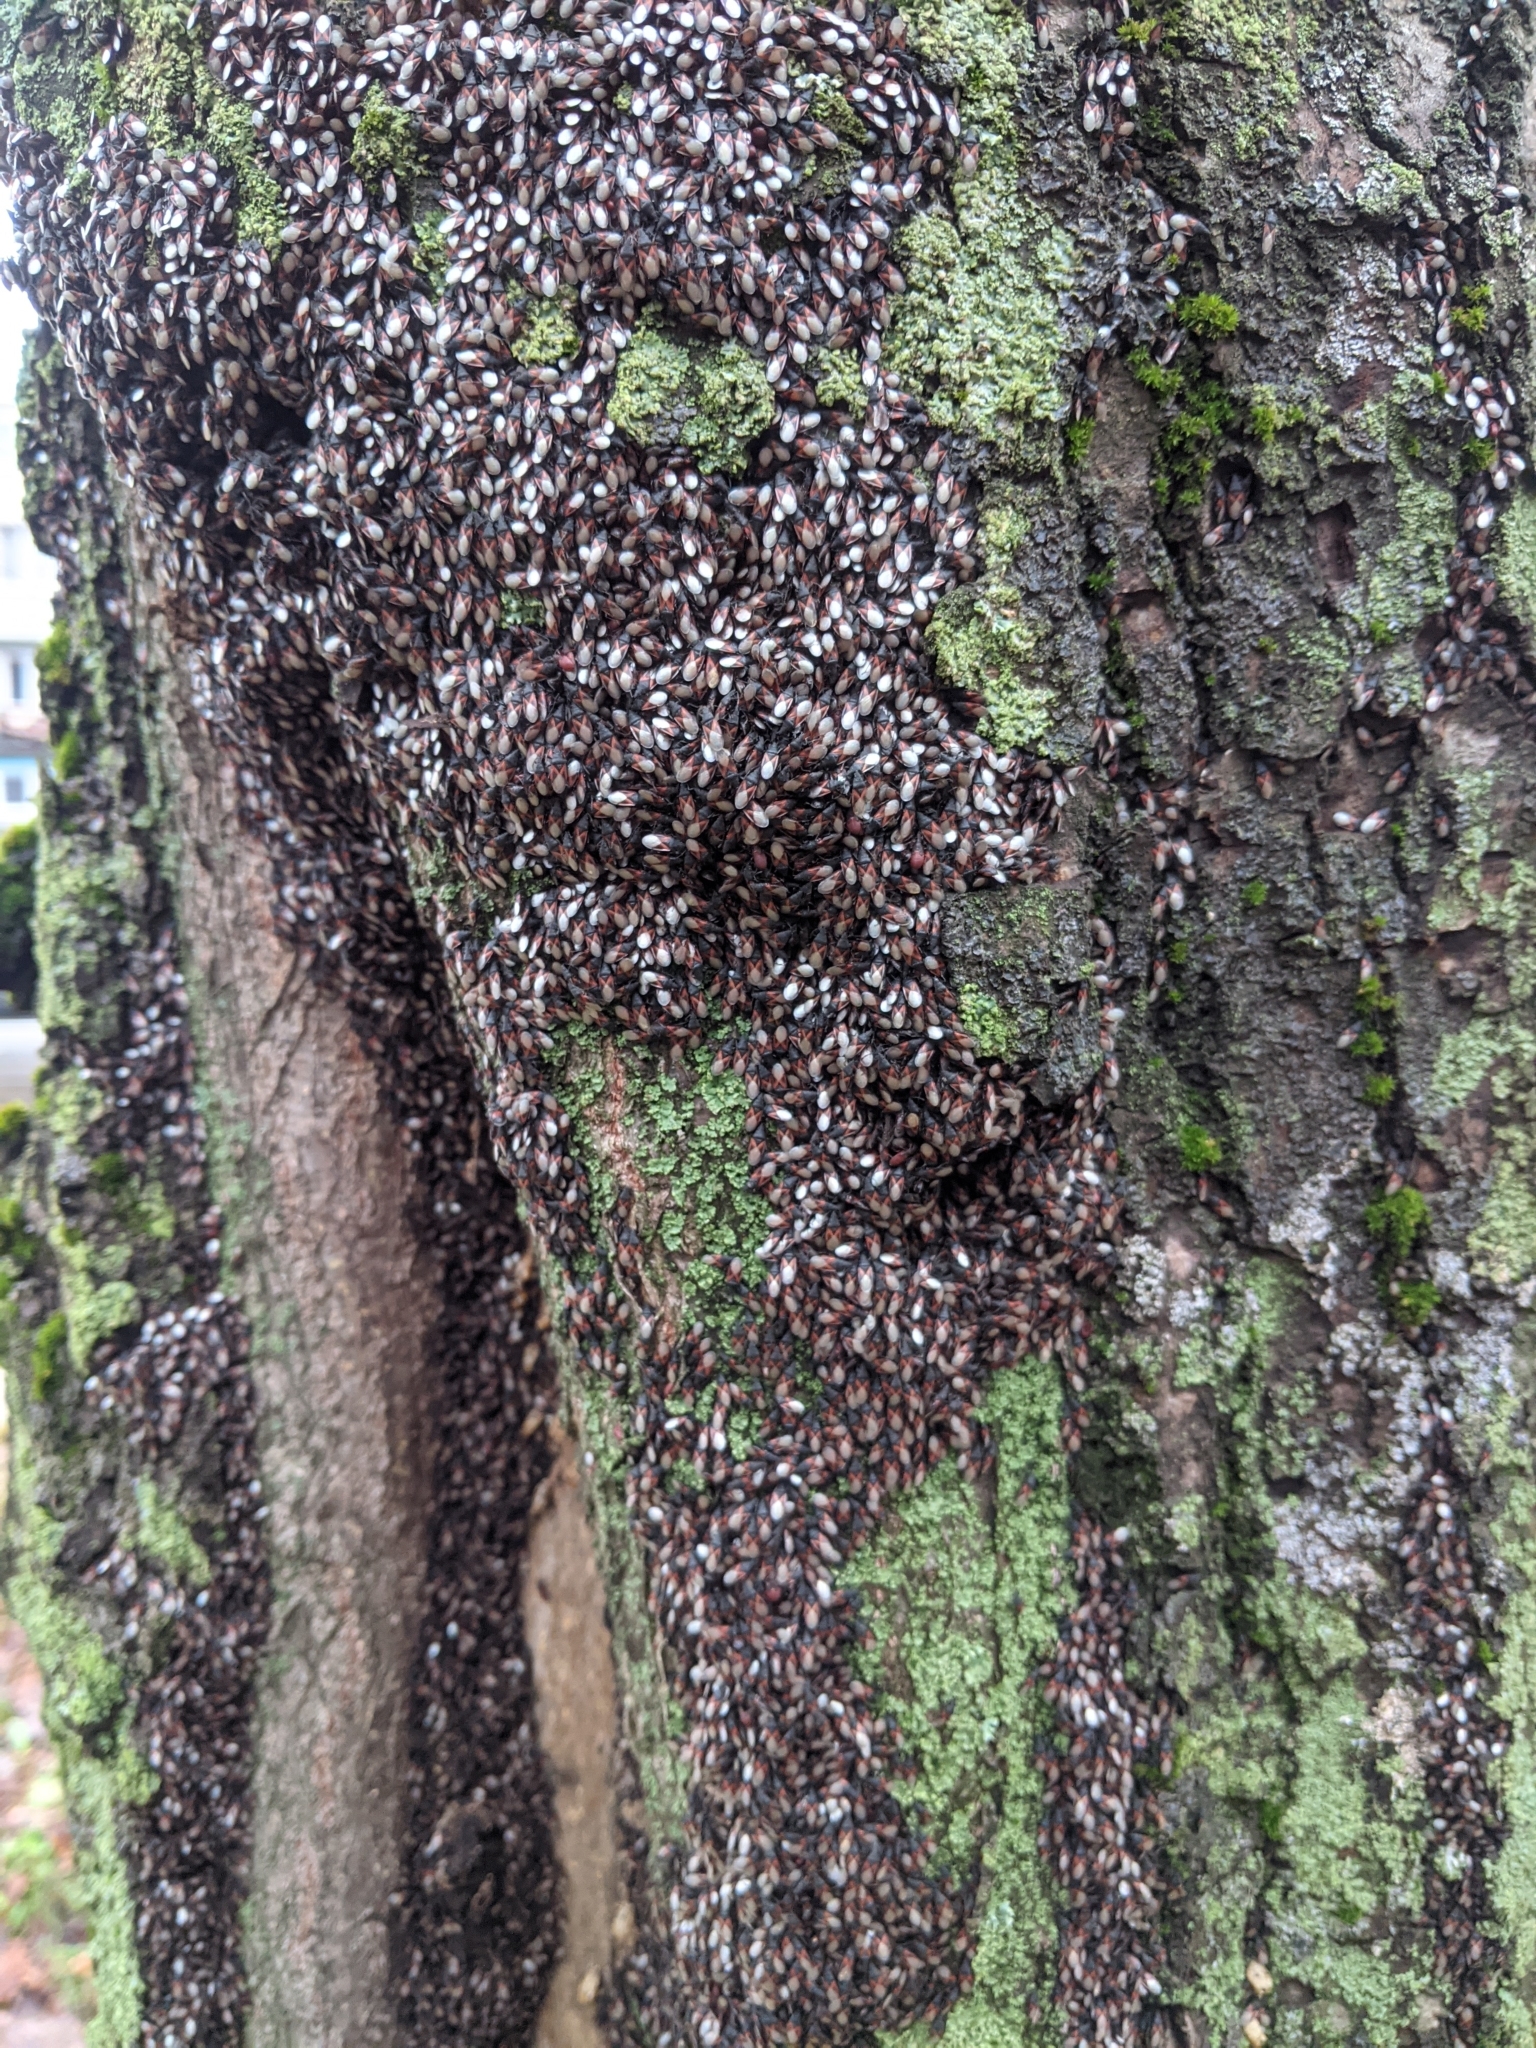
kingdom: Animalia
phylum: Arthropoda
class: Insecta
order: Hemiptera
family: Oxycarenidae
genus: Oxycarenus
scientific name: Oxycarenus lavaterae
